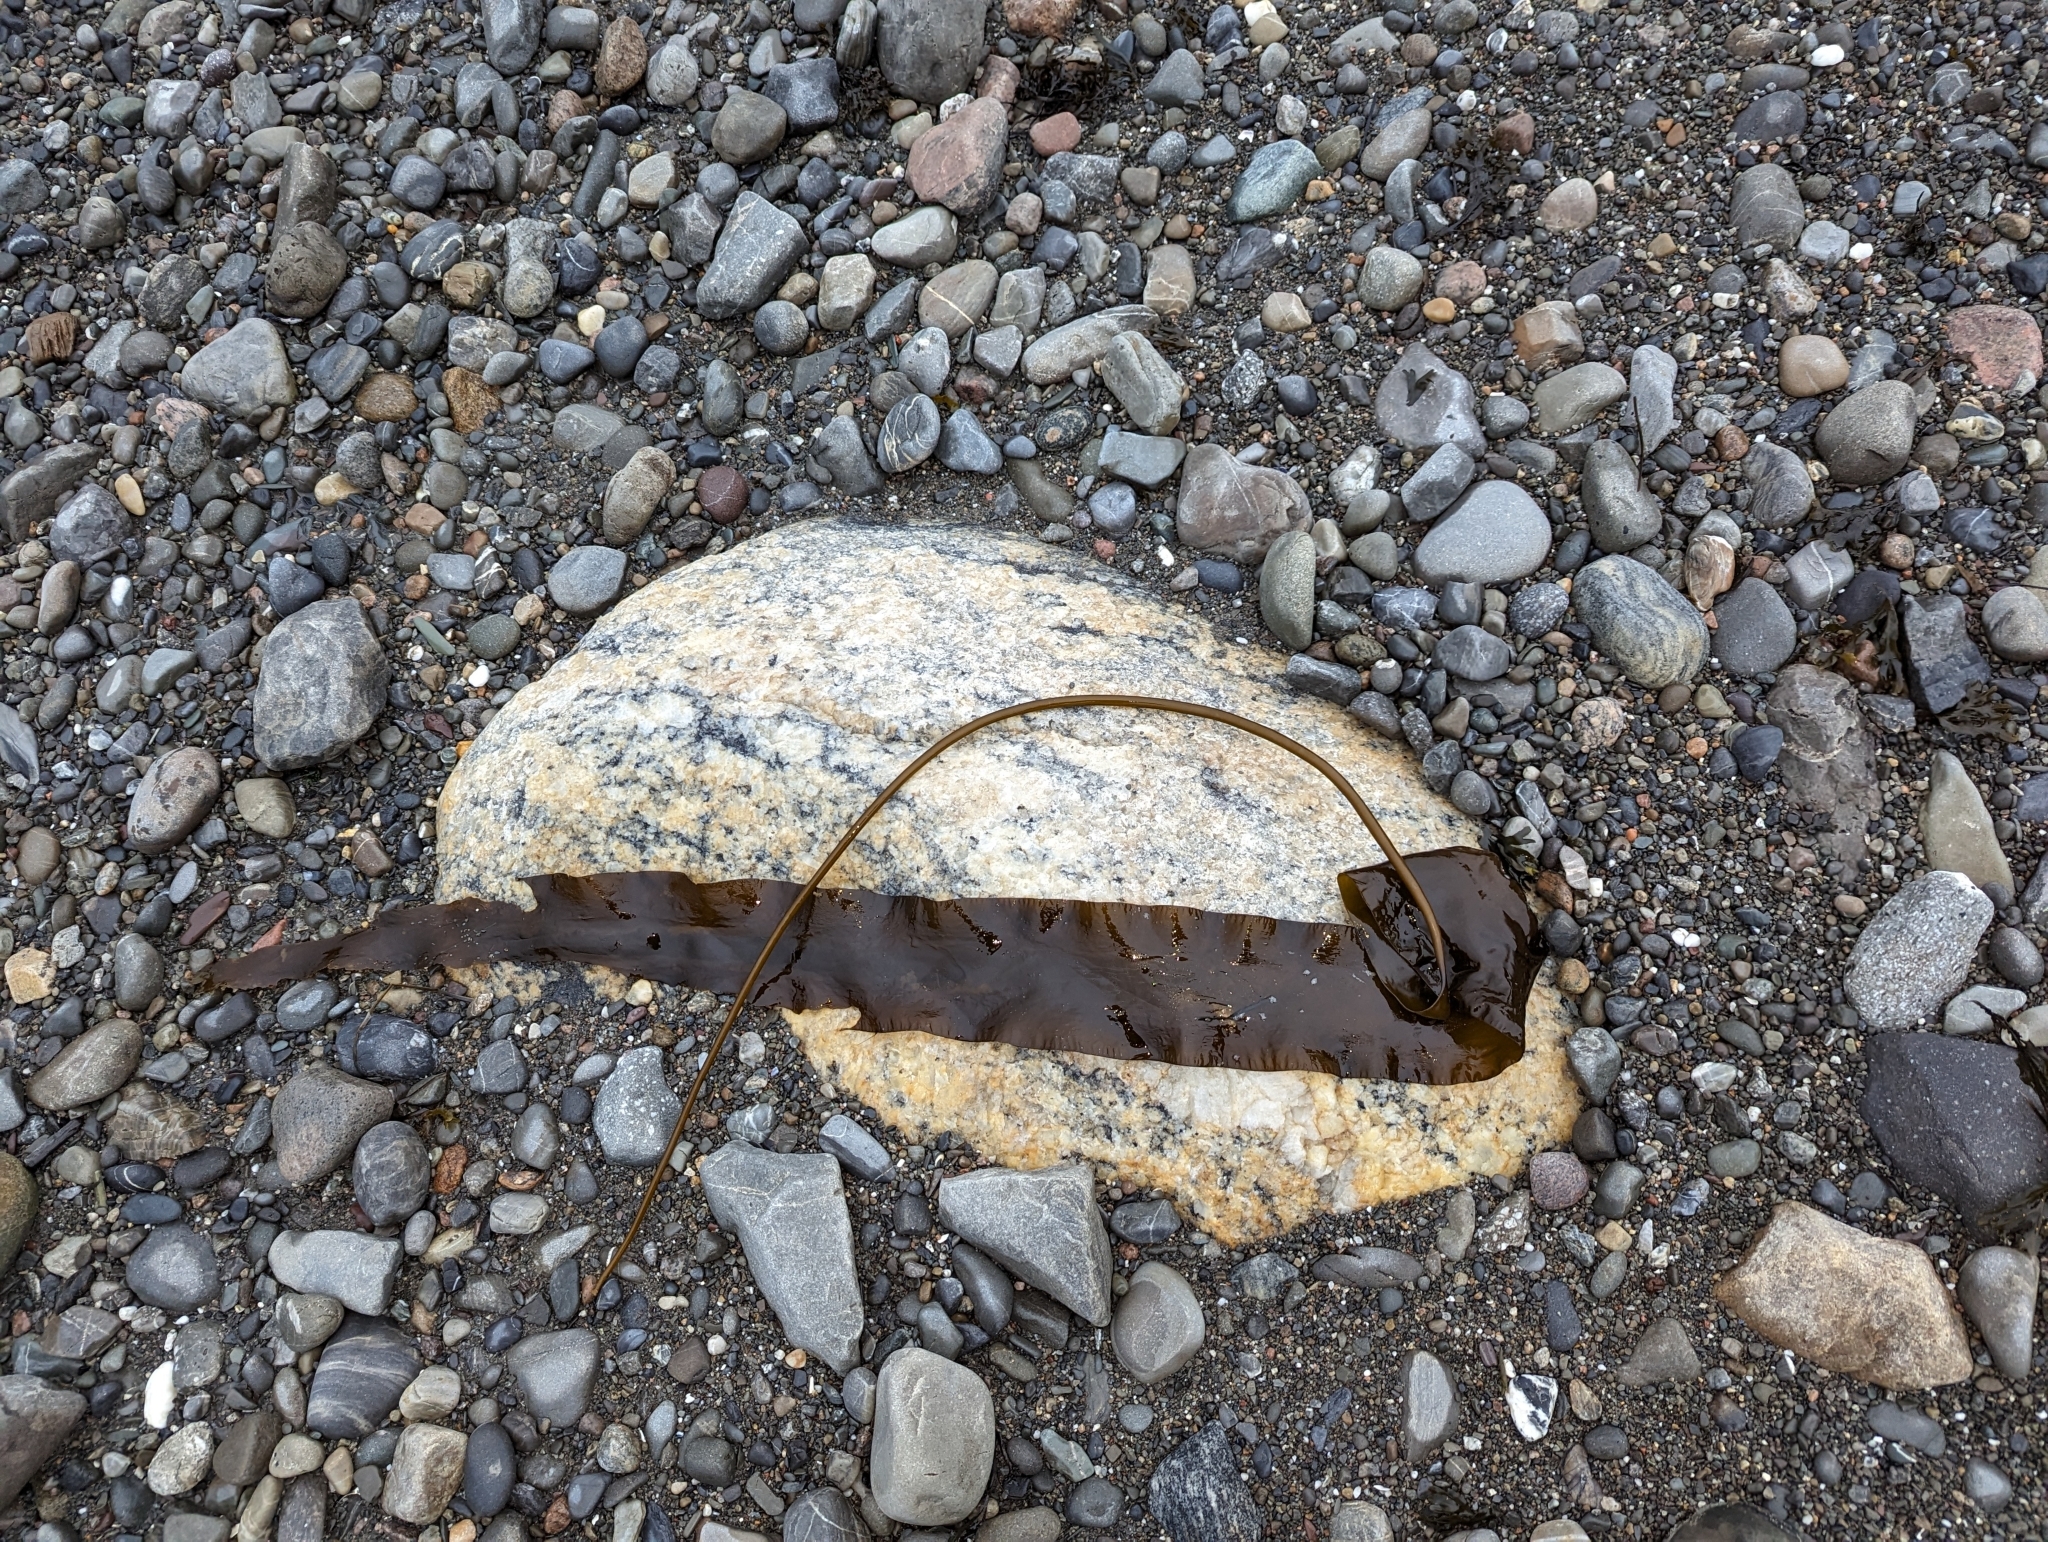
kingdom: Chromista
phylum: Ochrophyta
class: Phaeophyceae
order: Laminariales
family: Laminariaceae
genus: Saccharina
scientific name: Saccharina latissima
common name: Poor man's weather glass
